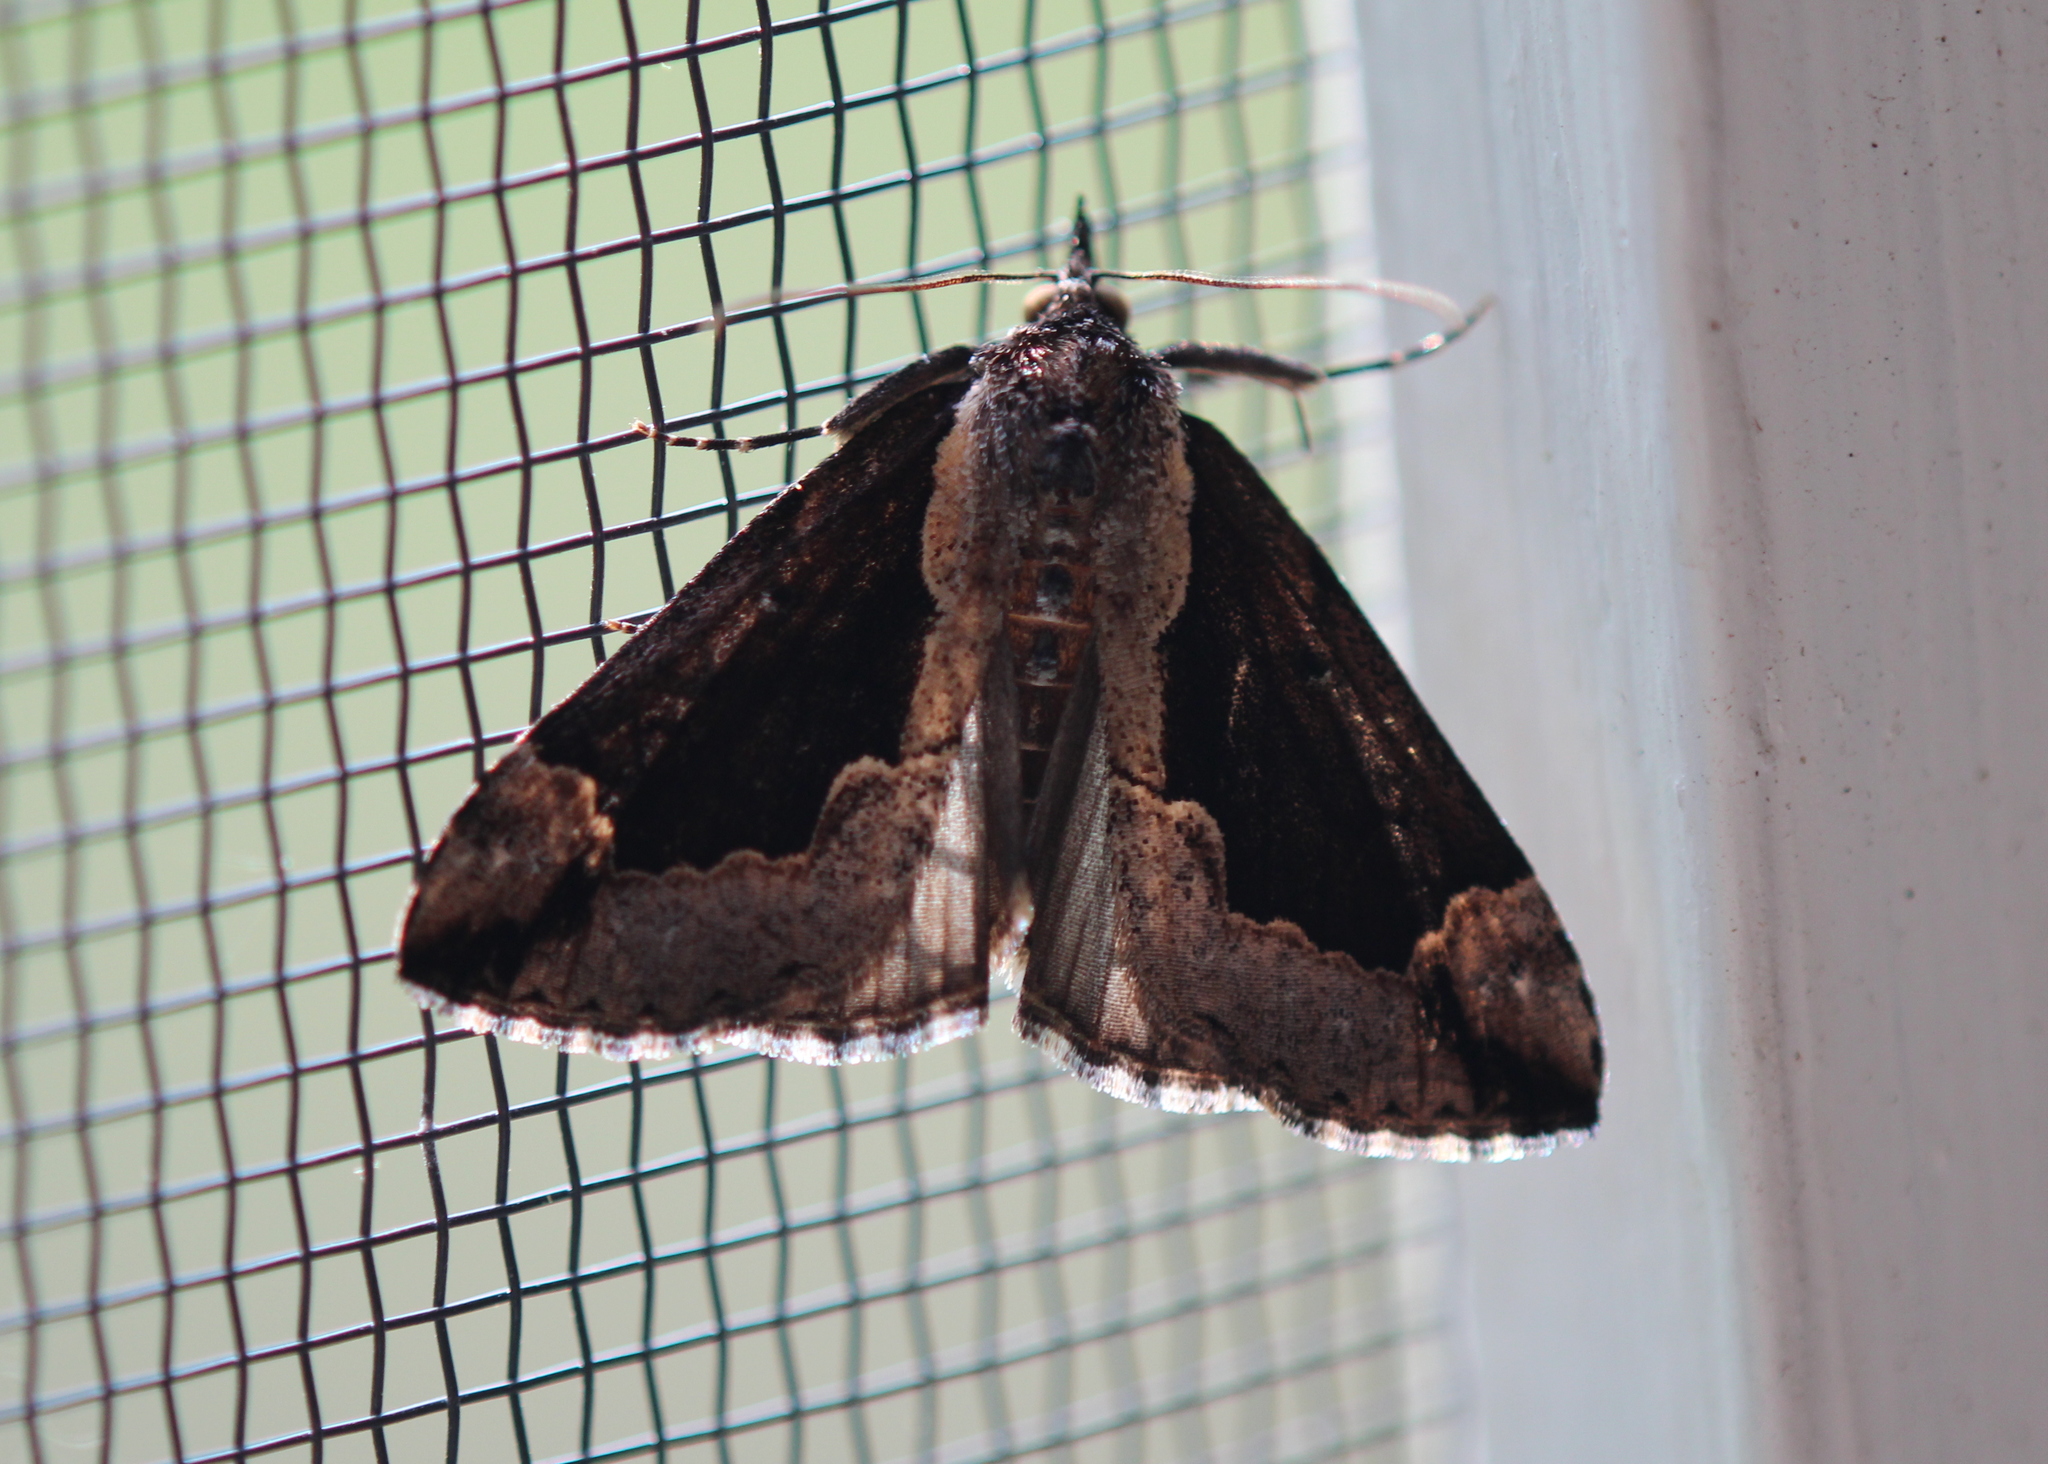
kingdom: Animalia
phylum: Arthropoda
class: Insecta
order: Lepidoptera
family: Erebidae
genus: Hypena
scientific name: Hypena baltimoralis
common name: Baltimore snout
